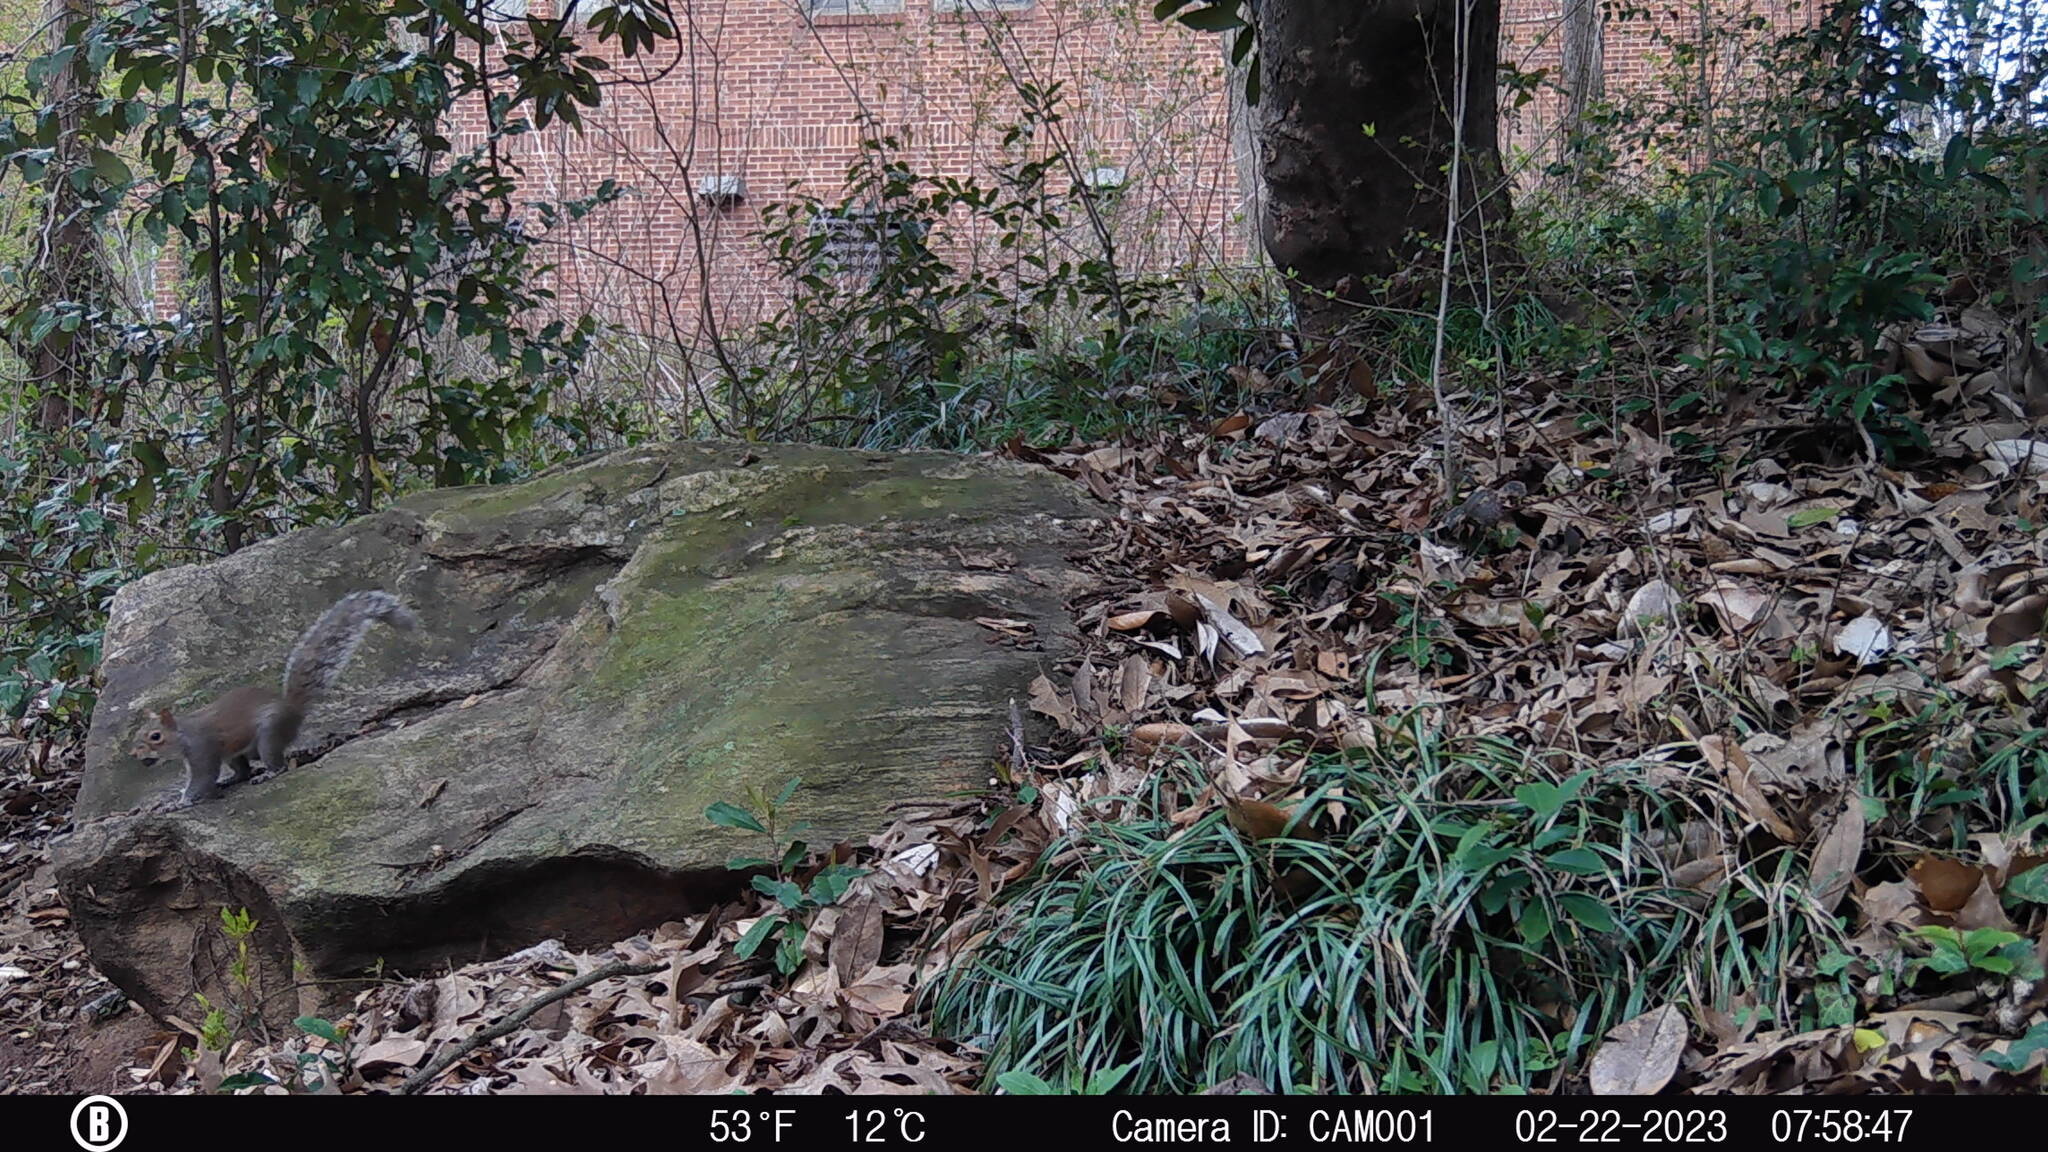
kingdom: Animalia
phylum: Chordata
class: Mammalia
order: Rodentia
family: Sciuridae
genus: Sciurus
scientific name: Sciurus carolinensis
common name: Eastern gray squirrel
